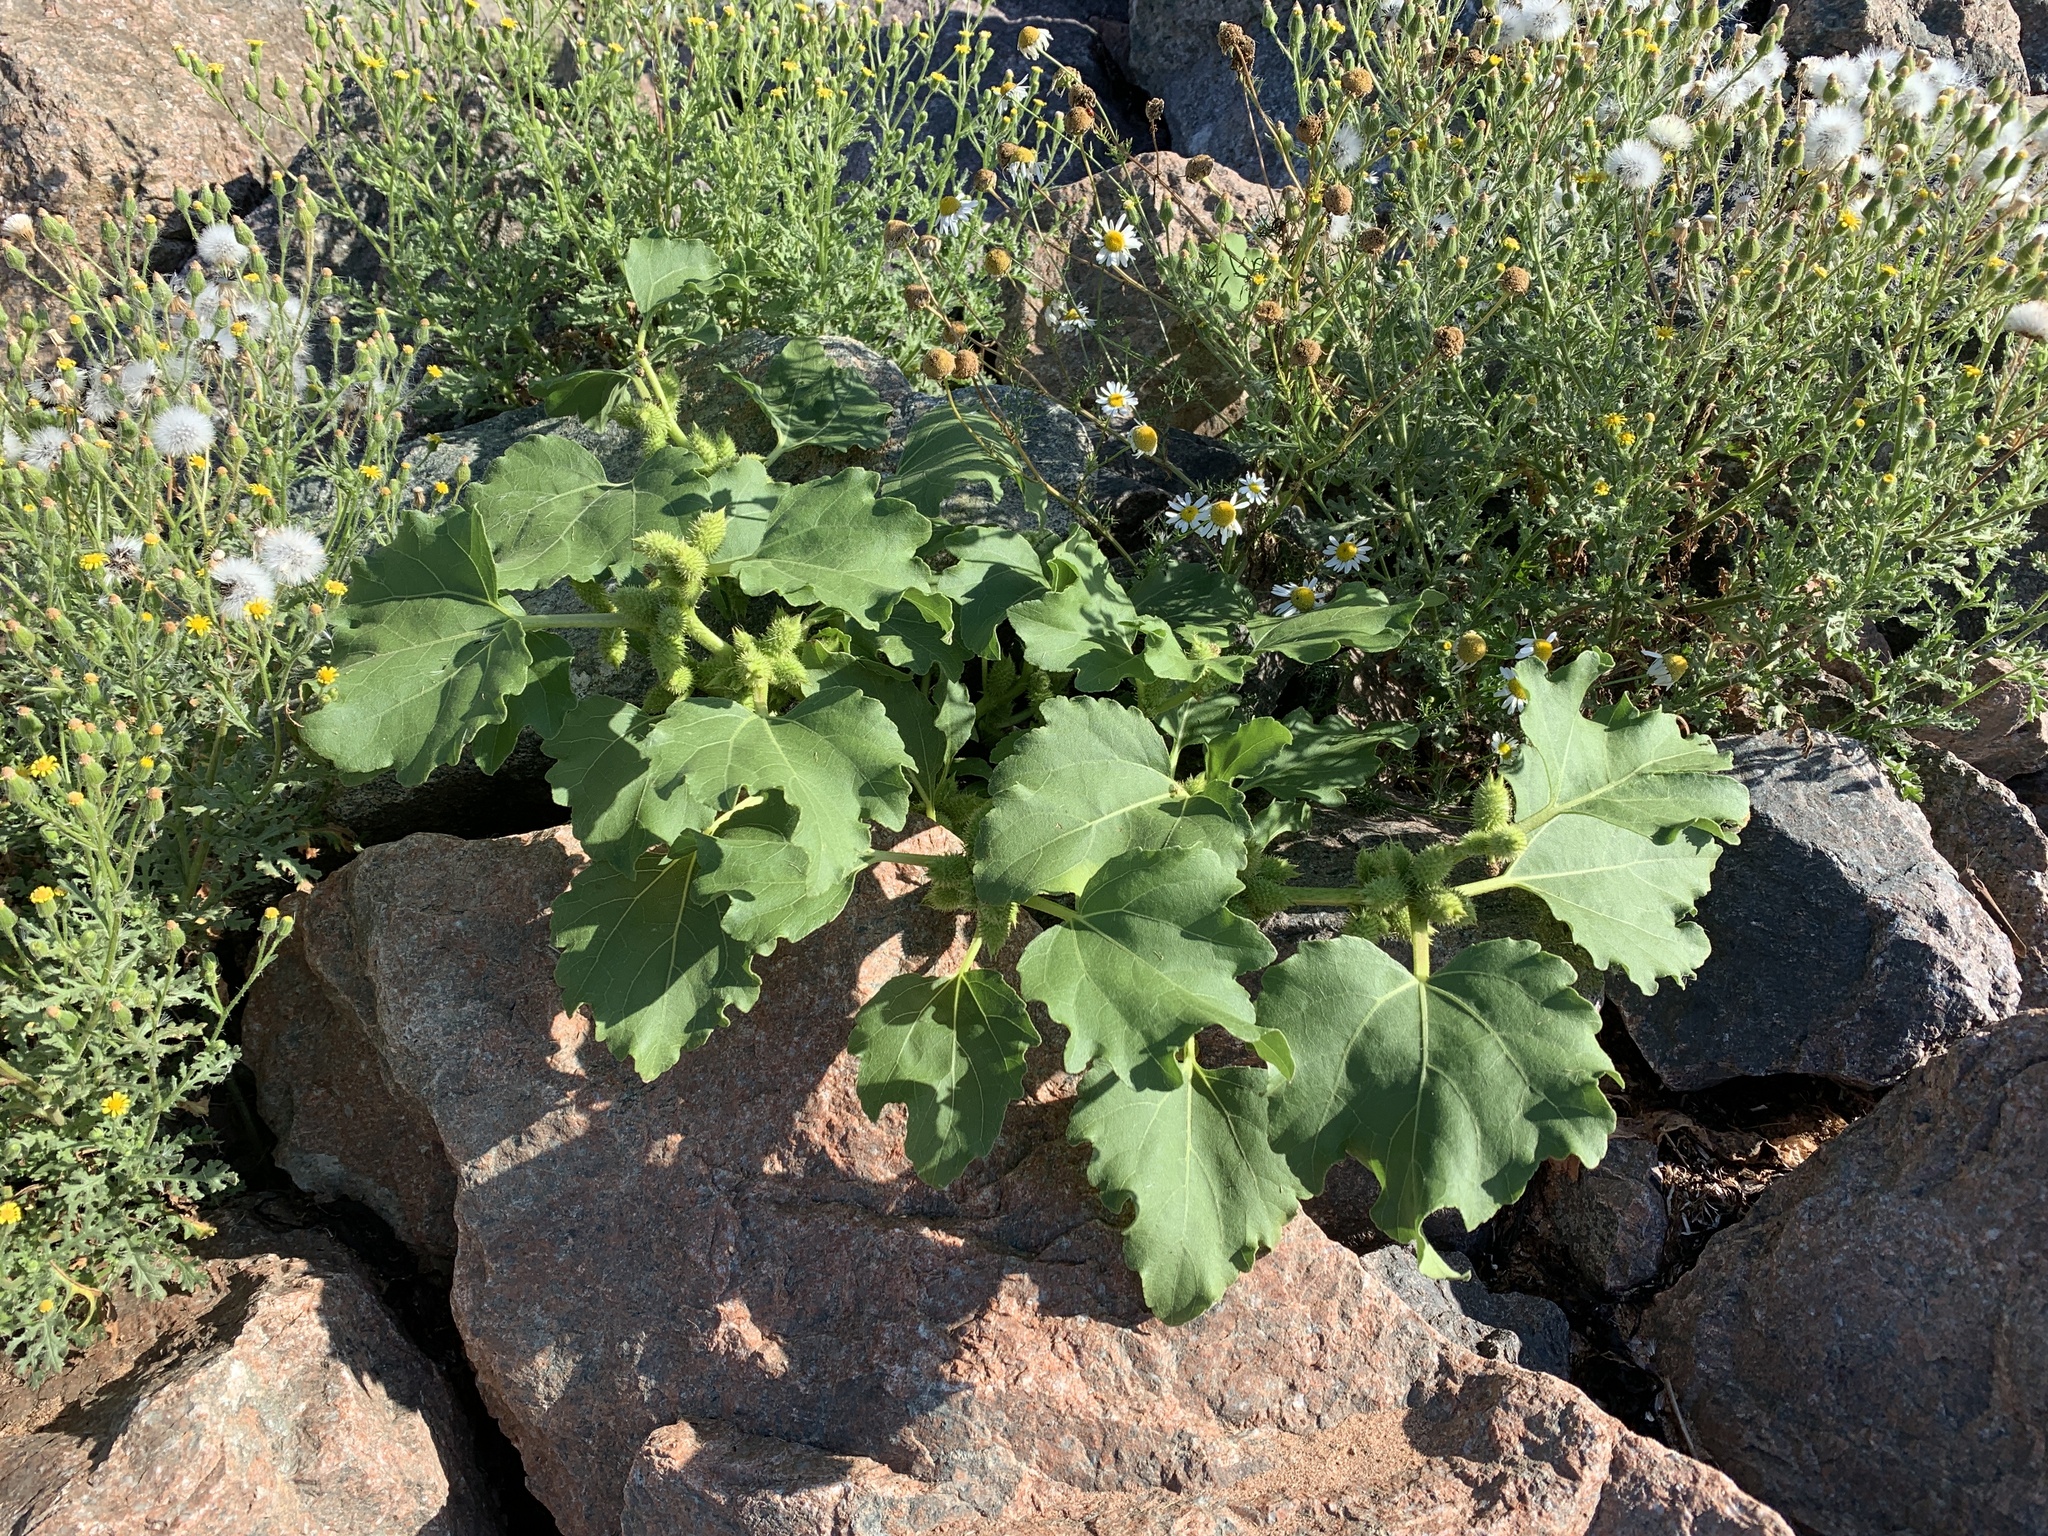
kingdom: Plantae
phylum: Tracheophyta
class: Magnoliopsida
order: Asterales
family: Asteraceae
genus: Xanthium
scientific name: Xanthium strumarium
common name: Rough cocklebur
